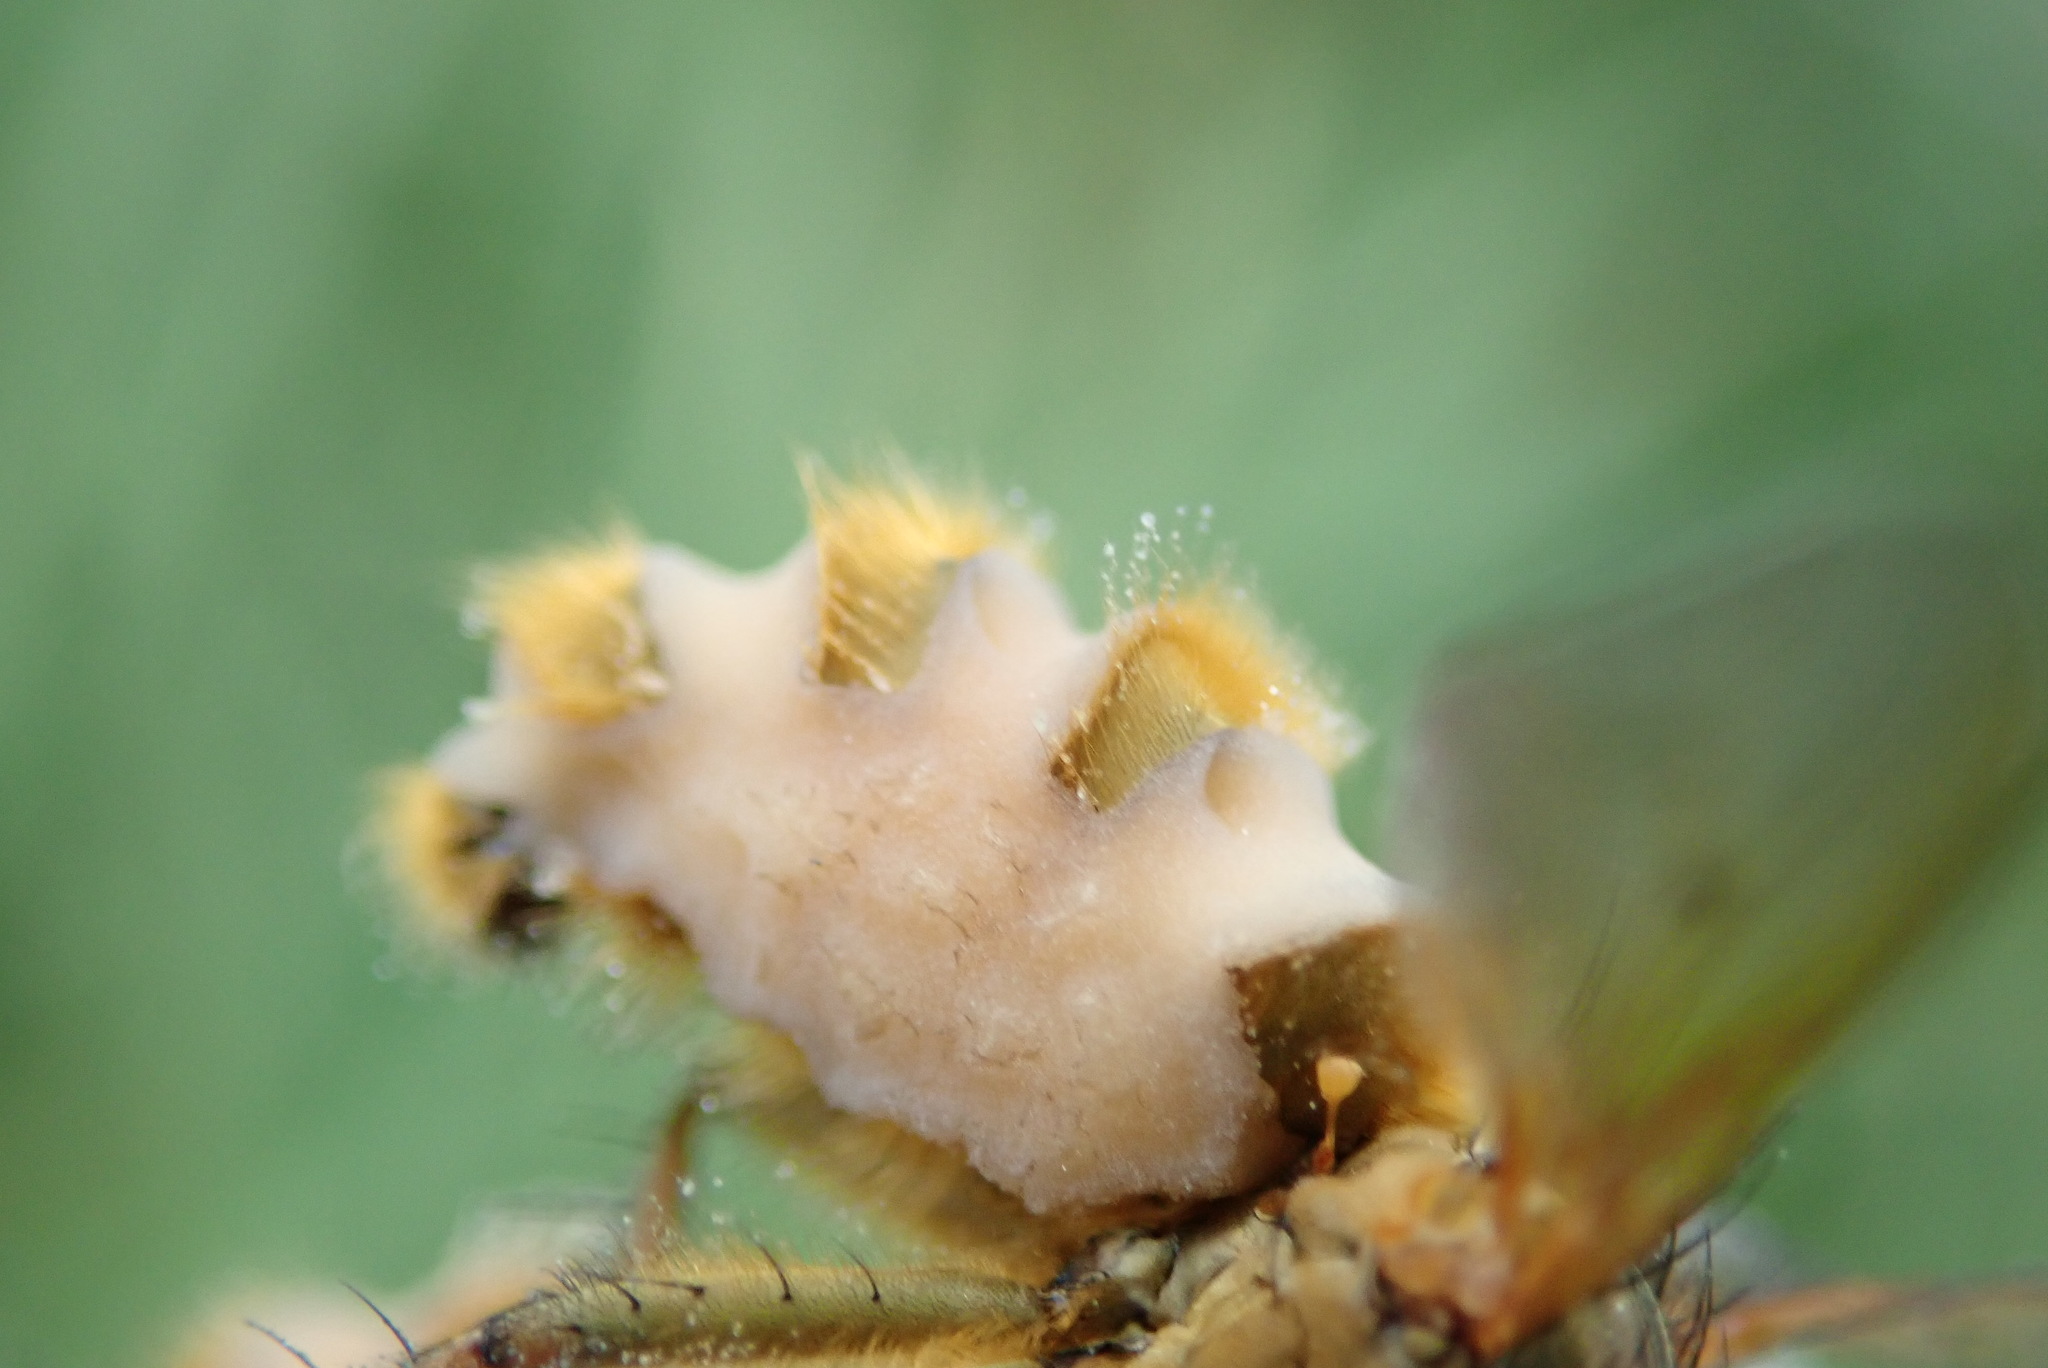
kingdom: Fungi
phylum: Entomophthoromycota
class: Entomophthoromycetes
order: Entomophthorales
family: Entomophthoraceae
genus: Entomophthora
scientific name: Entomophthora
